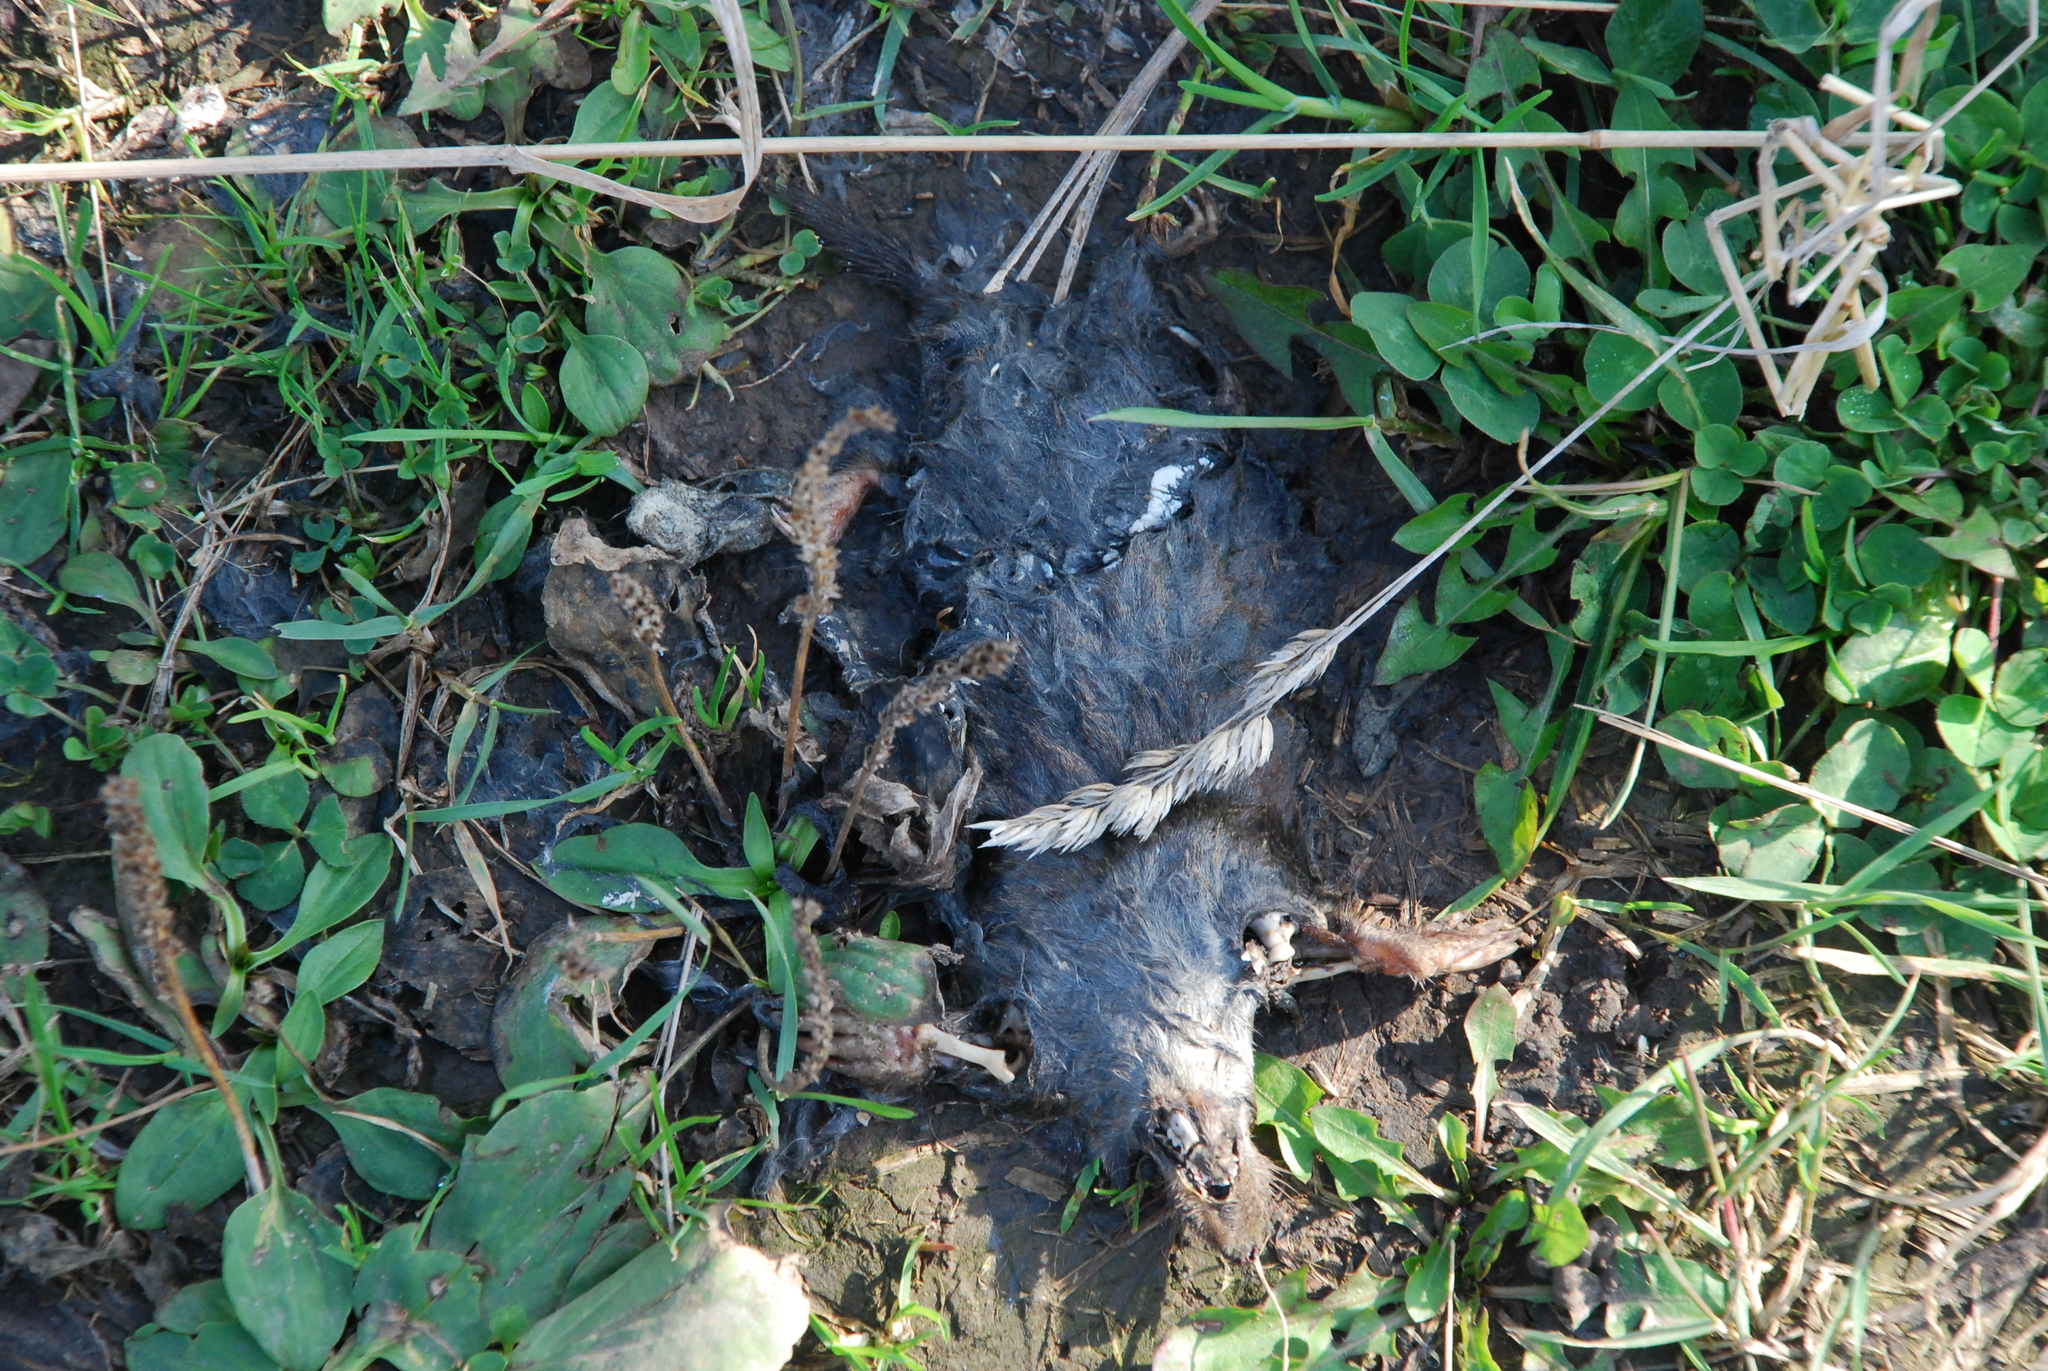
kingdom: Animalia
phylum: Chordata
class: Mammalia
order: Soricomorpha
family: Talpidae
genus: Talpa
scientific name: Talpa europaea
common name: European mole
